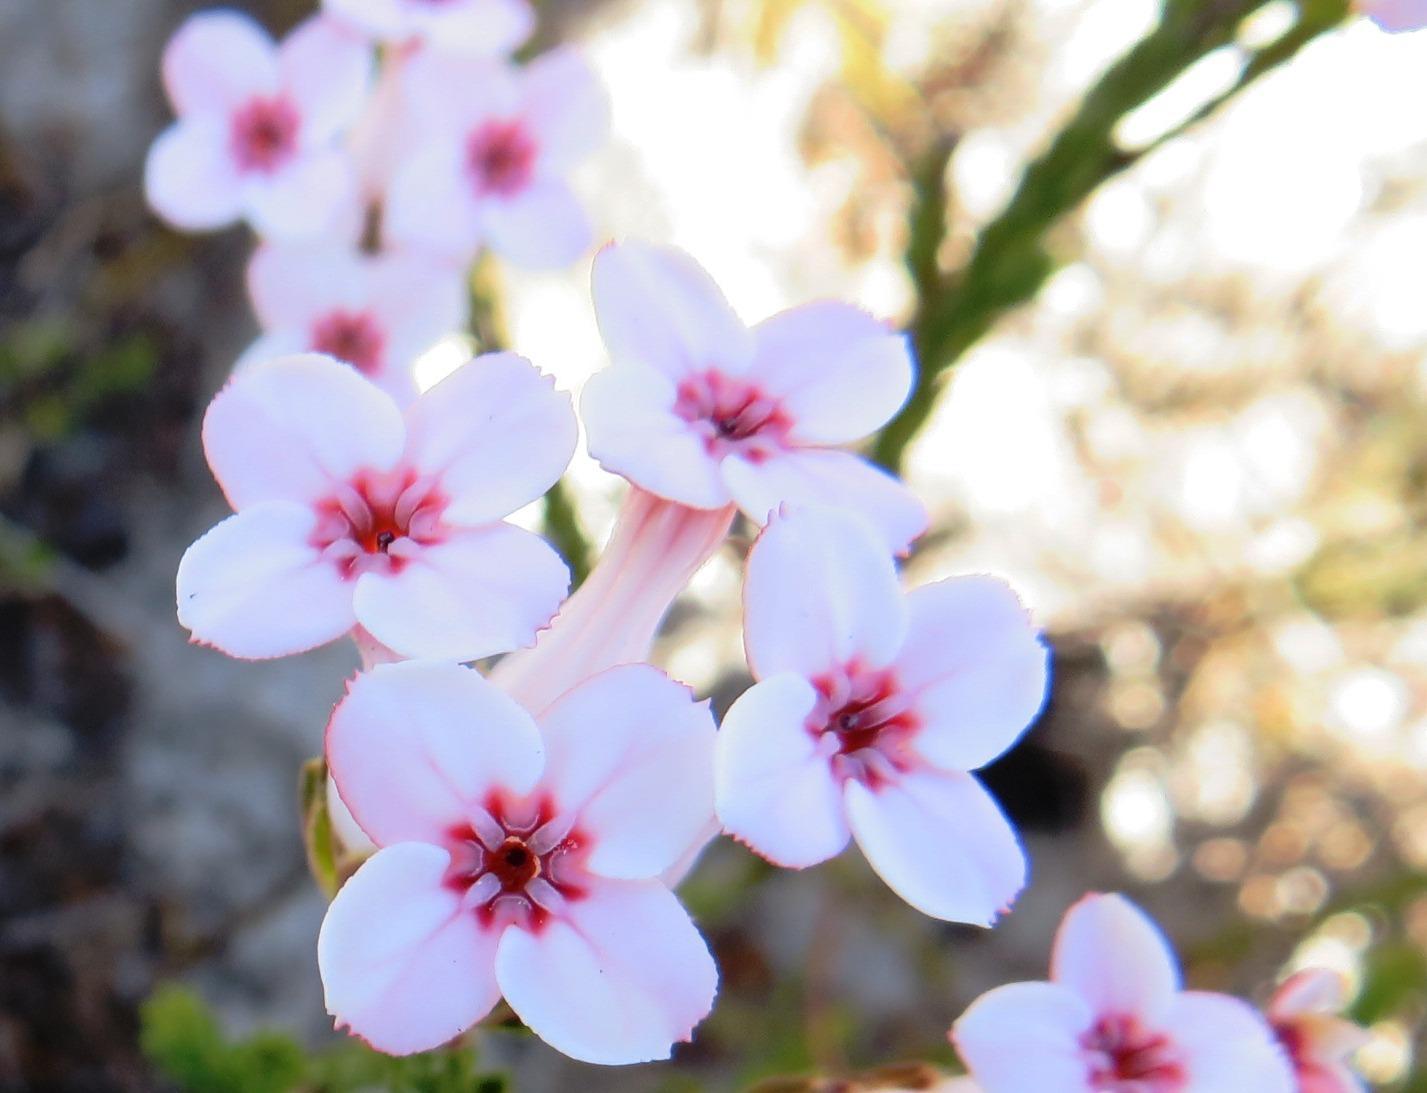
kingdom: Plantae
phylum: Tracheophyta
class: Magnoliopsida
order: Ericales
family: Ericaceae
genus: Erica
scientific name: Erica ampullacea
